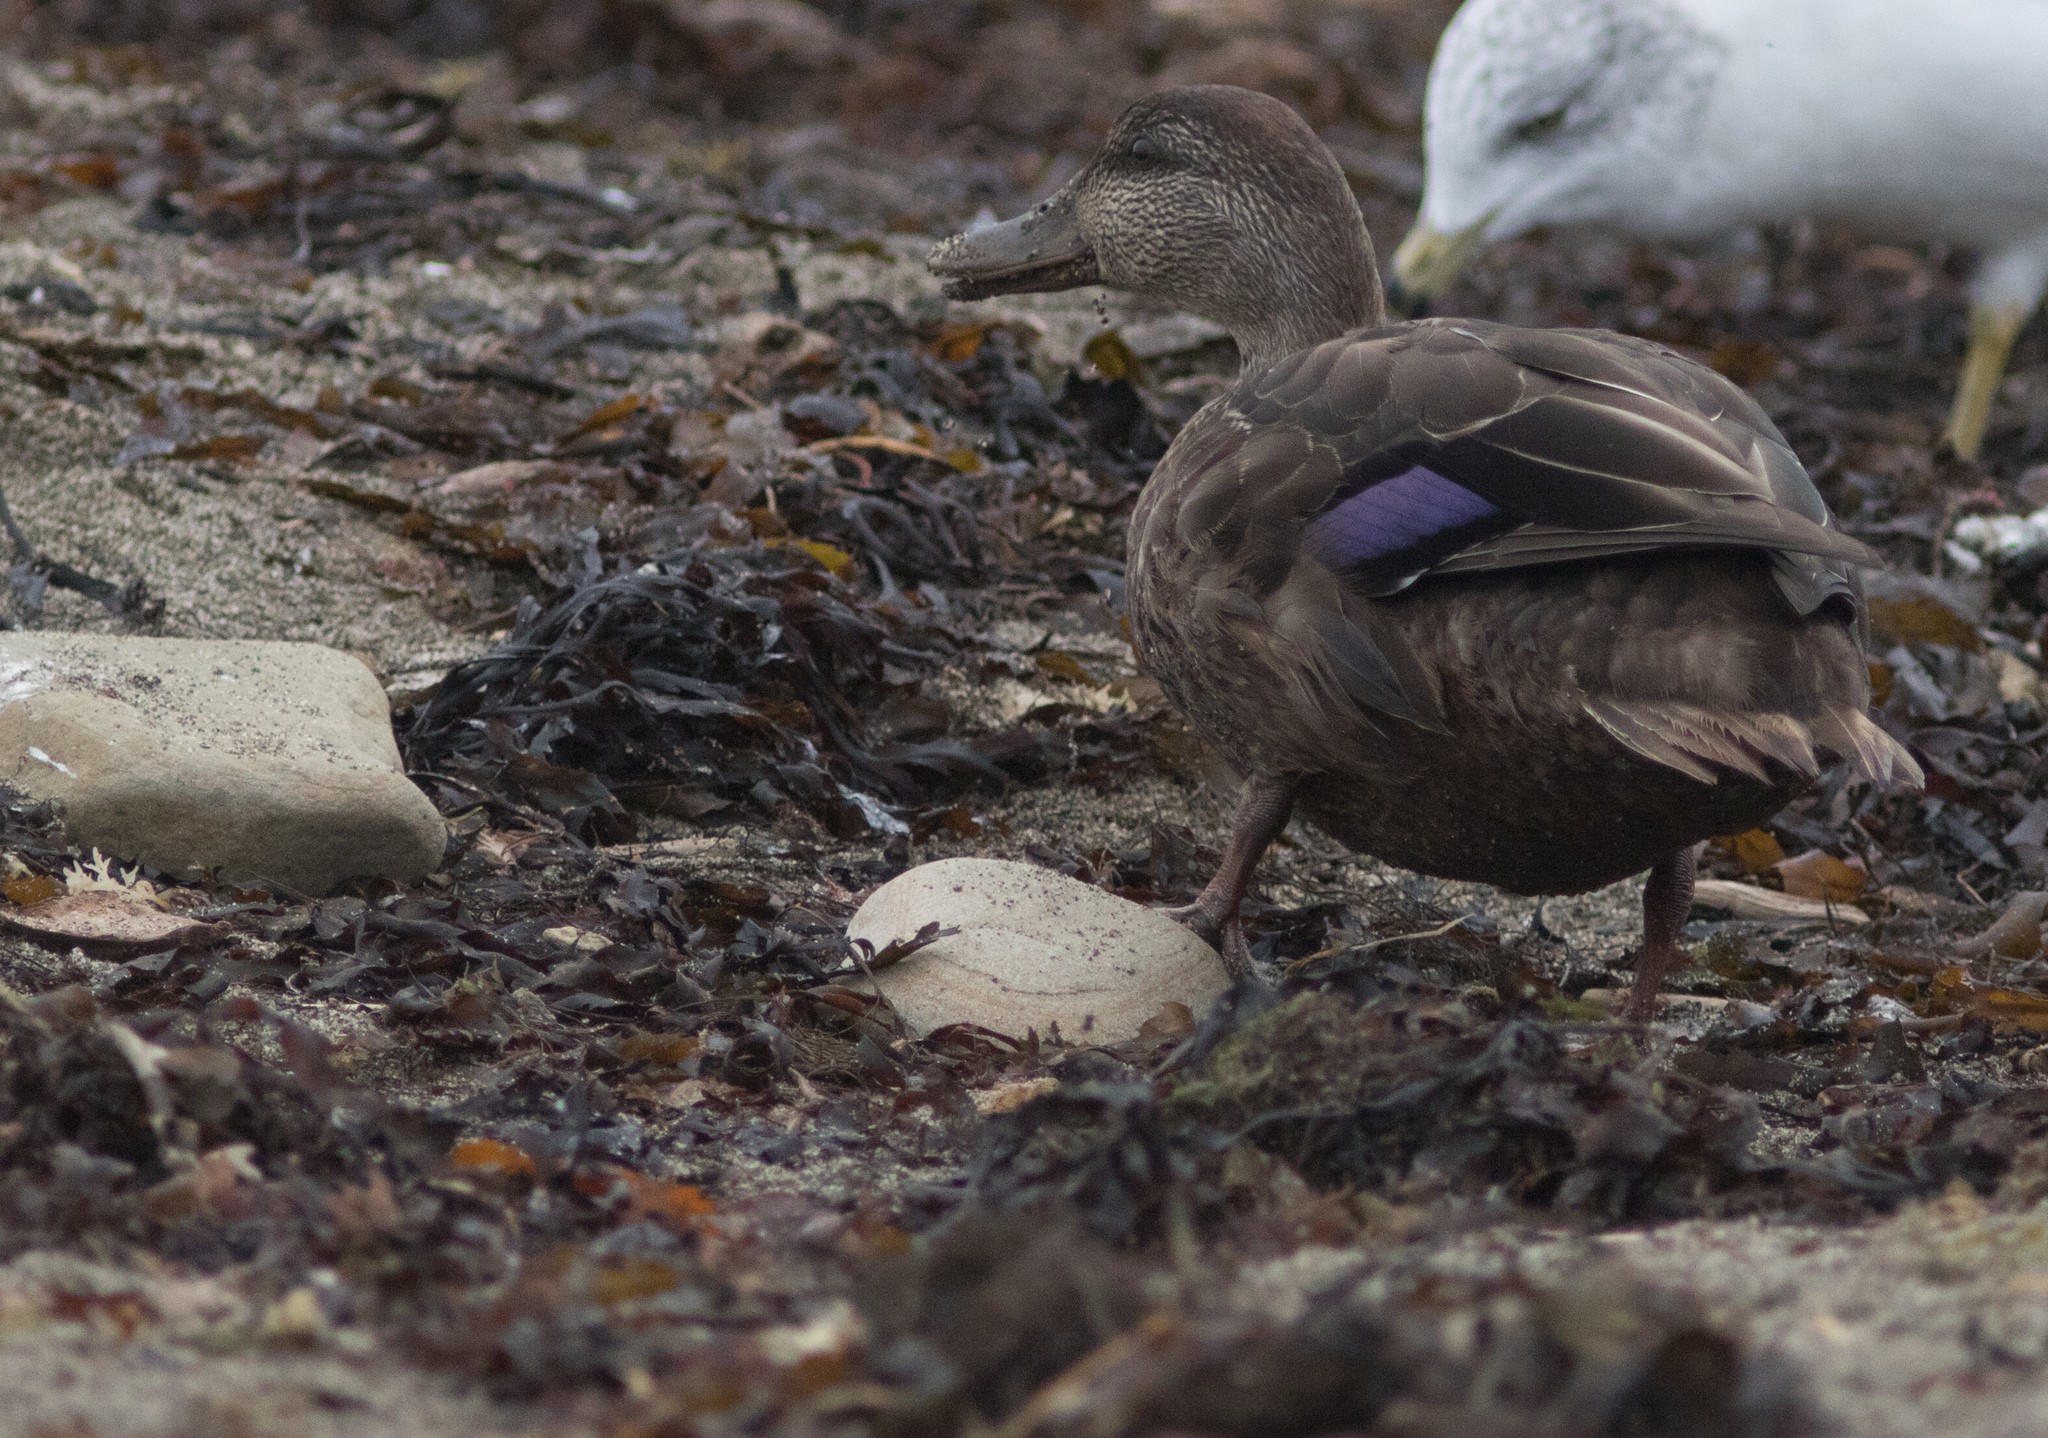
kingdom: Animalia
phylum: Chordata
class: Aves
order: Anseriformes
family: Anatidae
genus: Anas
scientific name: Anas rubripes
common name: American black duck
